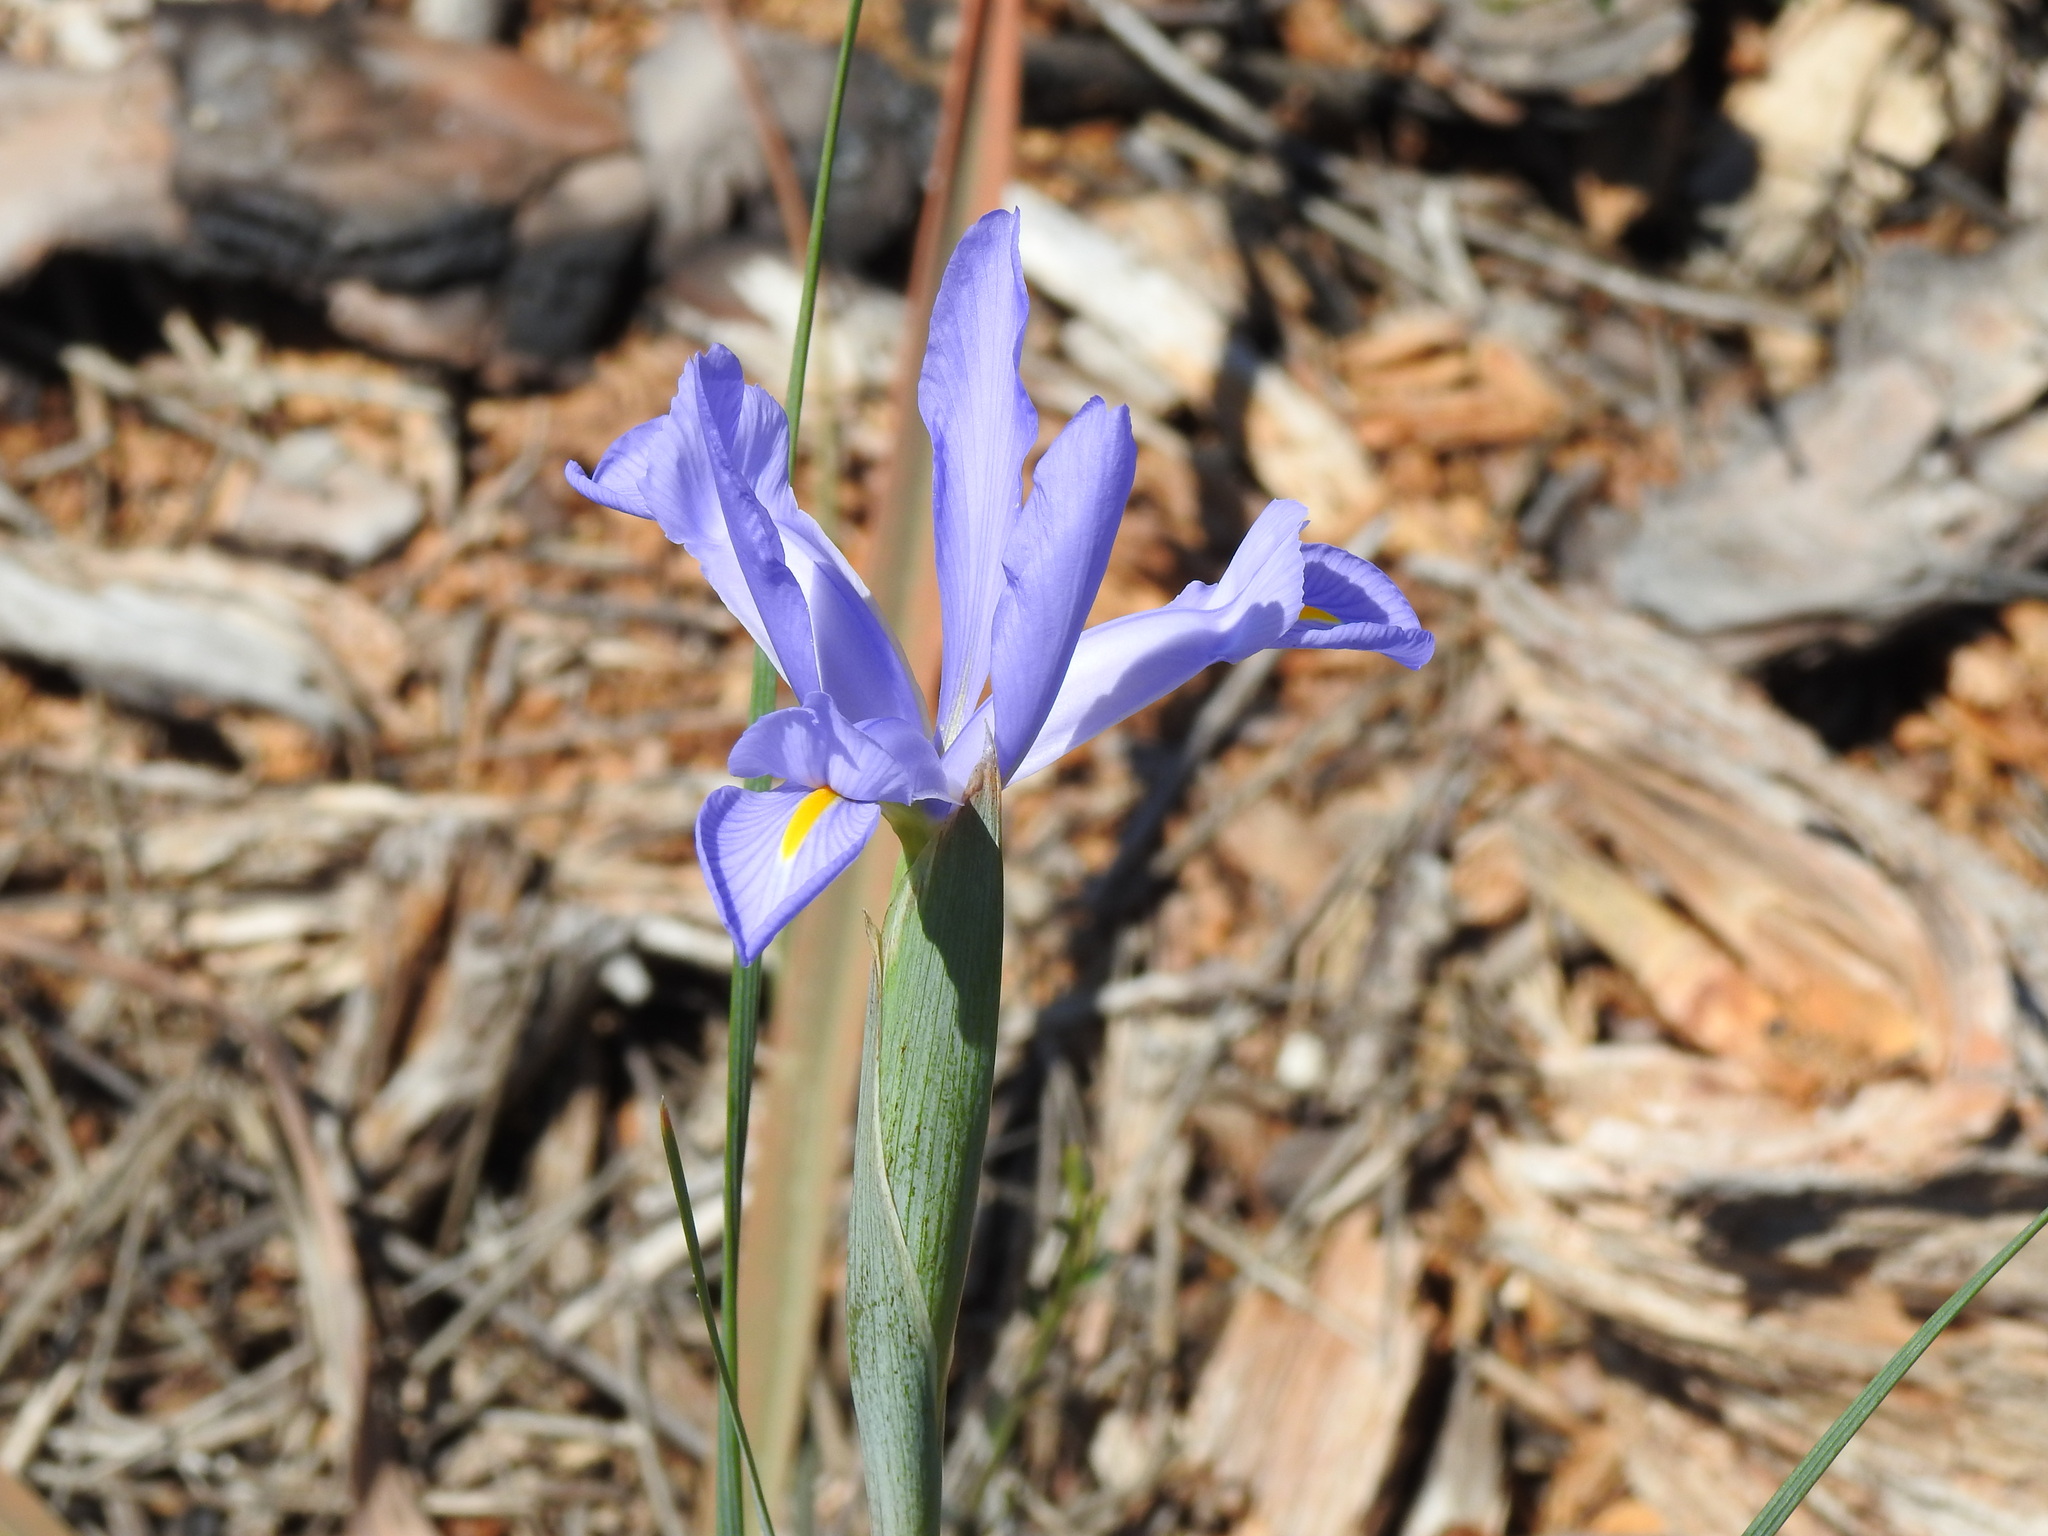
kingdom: Plantae
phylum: Tracheophyta
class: Liliopsida
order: Asparagales
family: Iridaceae
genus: Iris
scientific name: Iris xiphium
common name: Spanish iris
